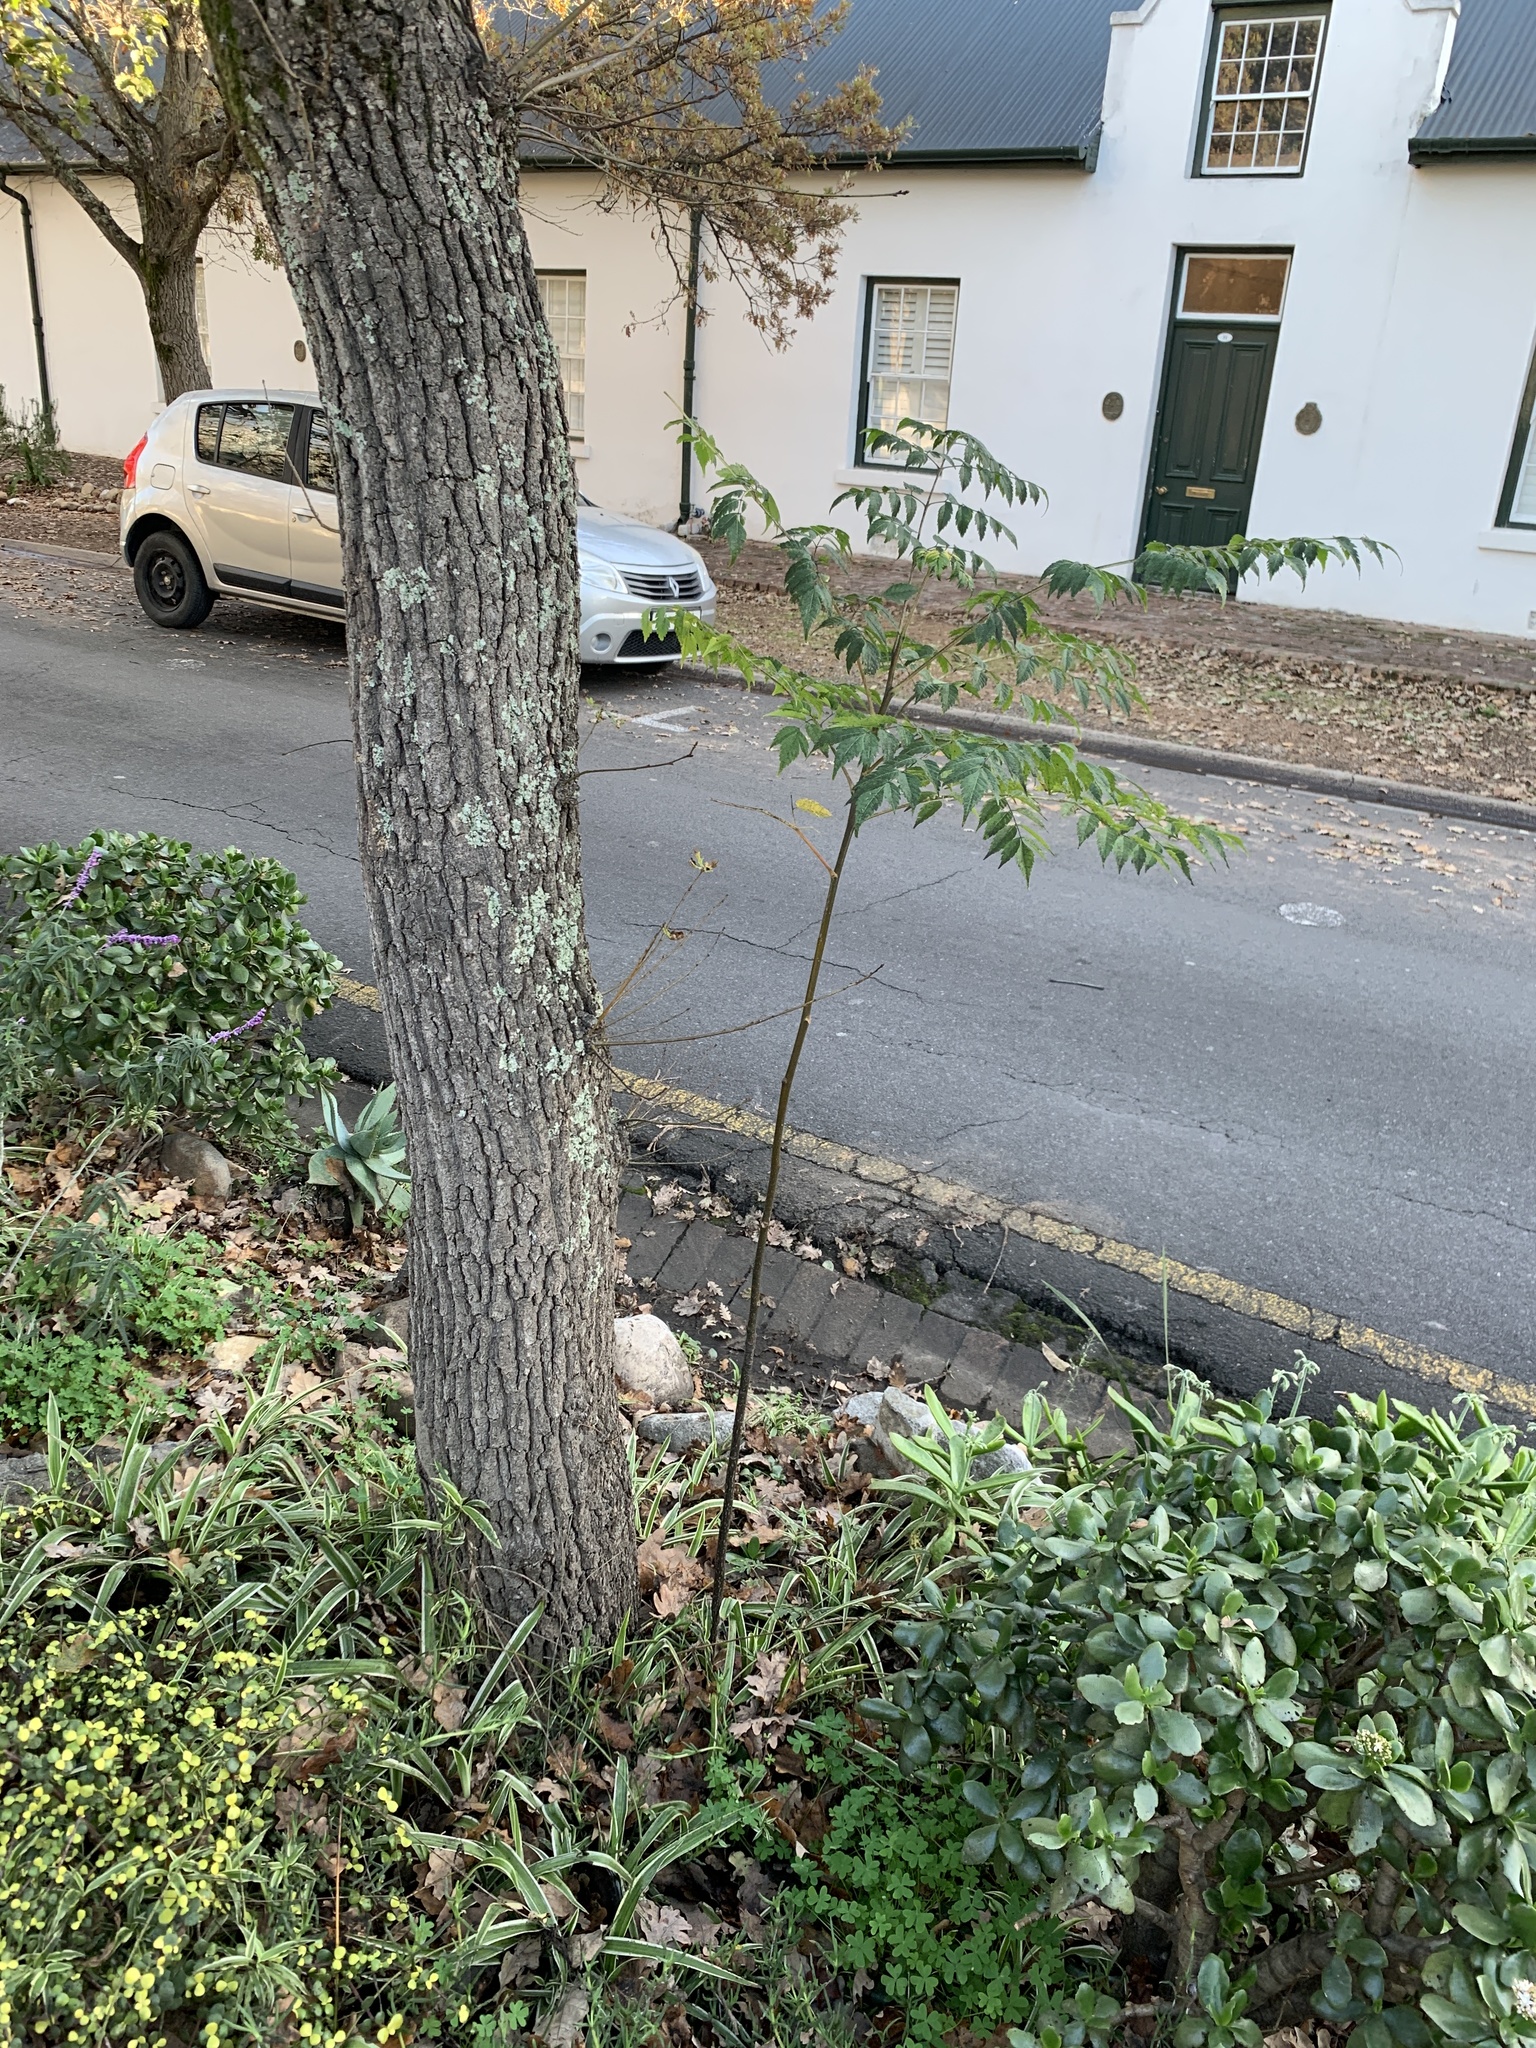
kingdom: Plantae
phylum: Tracheophyta
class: Magnoliopsida
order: Sapindales
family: Meliaceae
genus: Melia
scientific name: Melia azedarach
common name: Chinaberrytree
